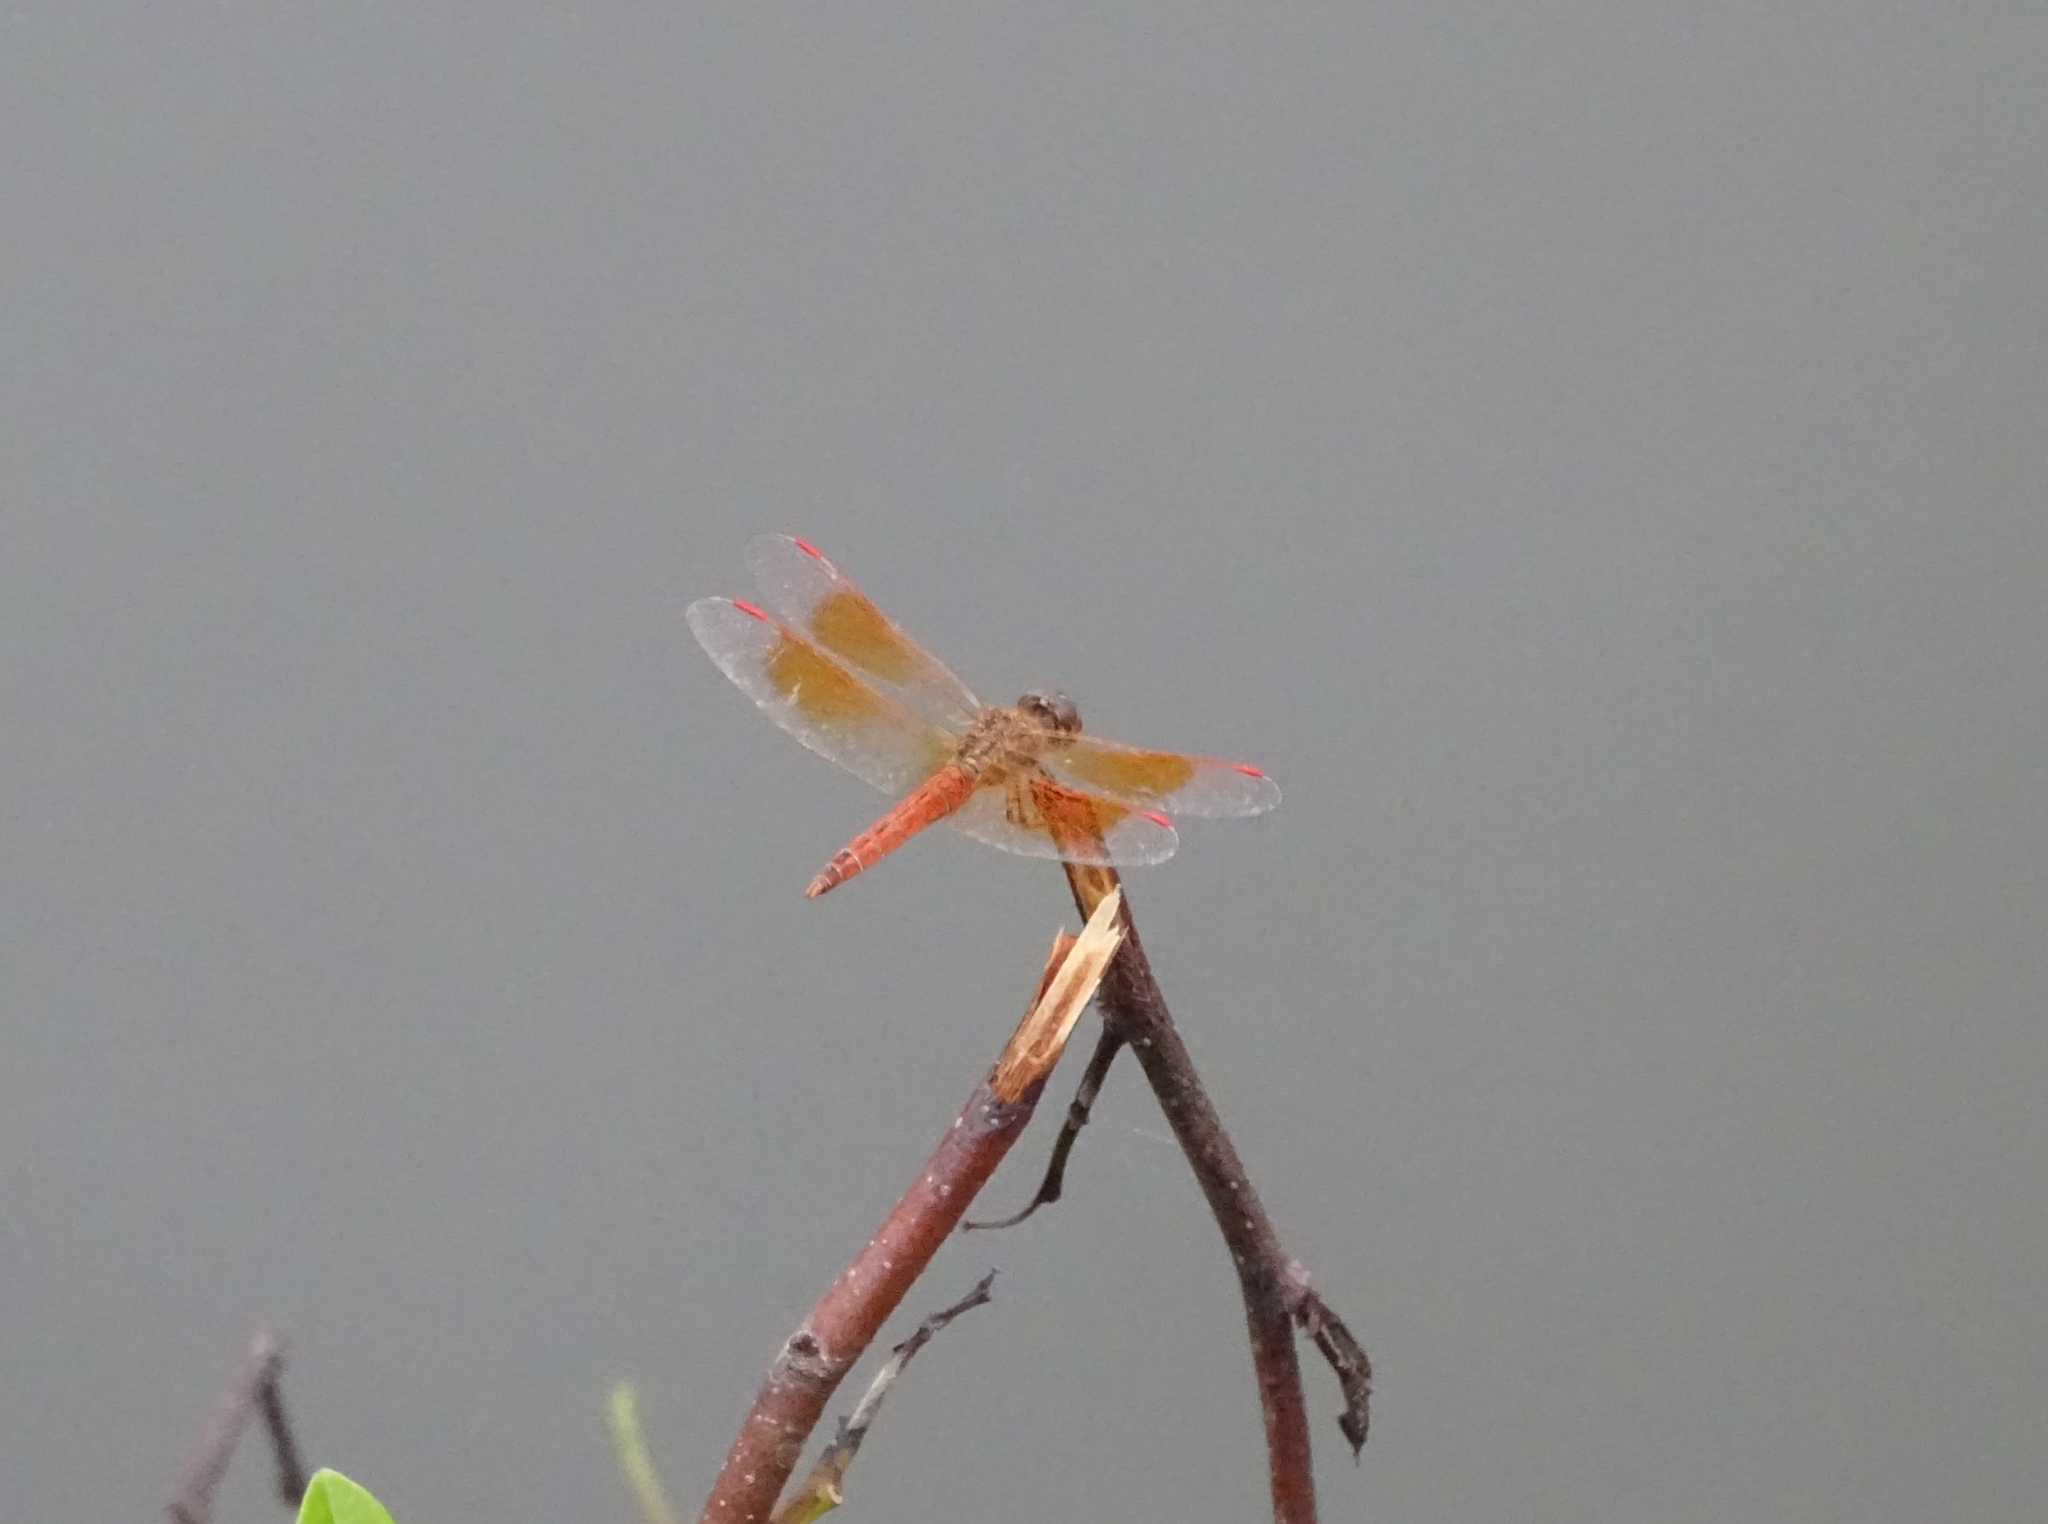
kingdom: Animalia
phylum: Arthropoda
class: Insecta
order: Odonata
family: Libellulidae
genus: Brachythemis
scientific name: Brachythemis contaminata
